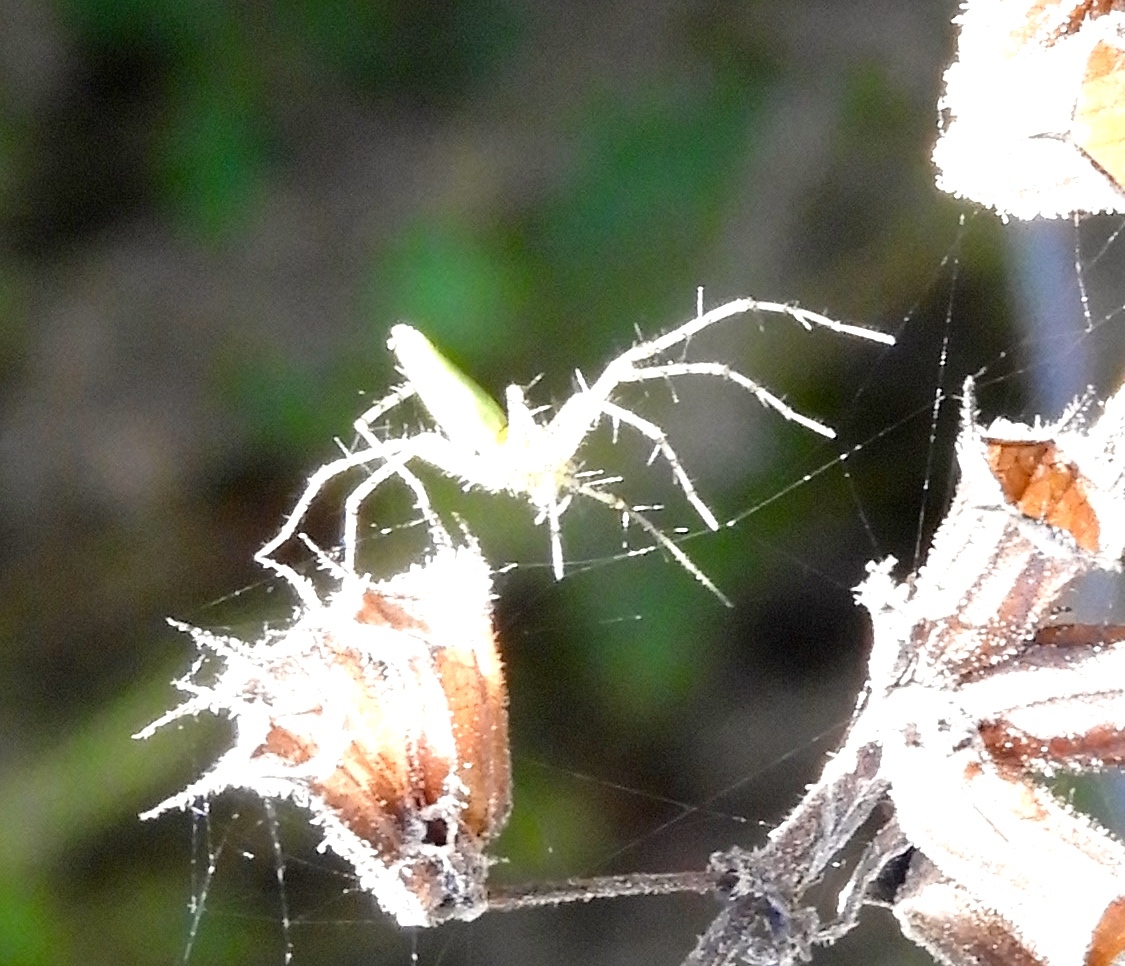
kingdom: Animalia
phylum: Arthropoda
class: Arachnida
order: Araneae
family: Oxyopidae
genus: Peucetia
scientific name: Peucetia
